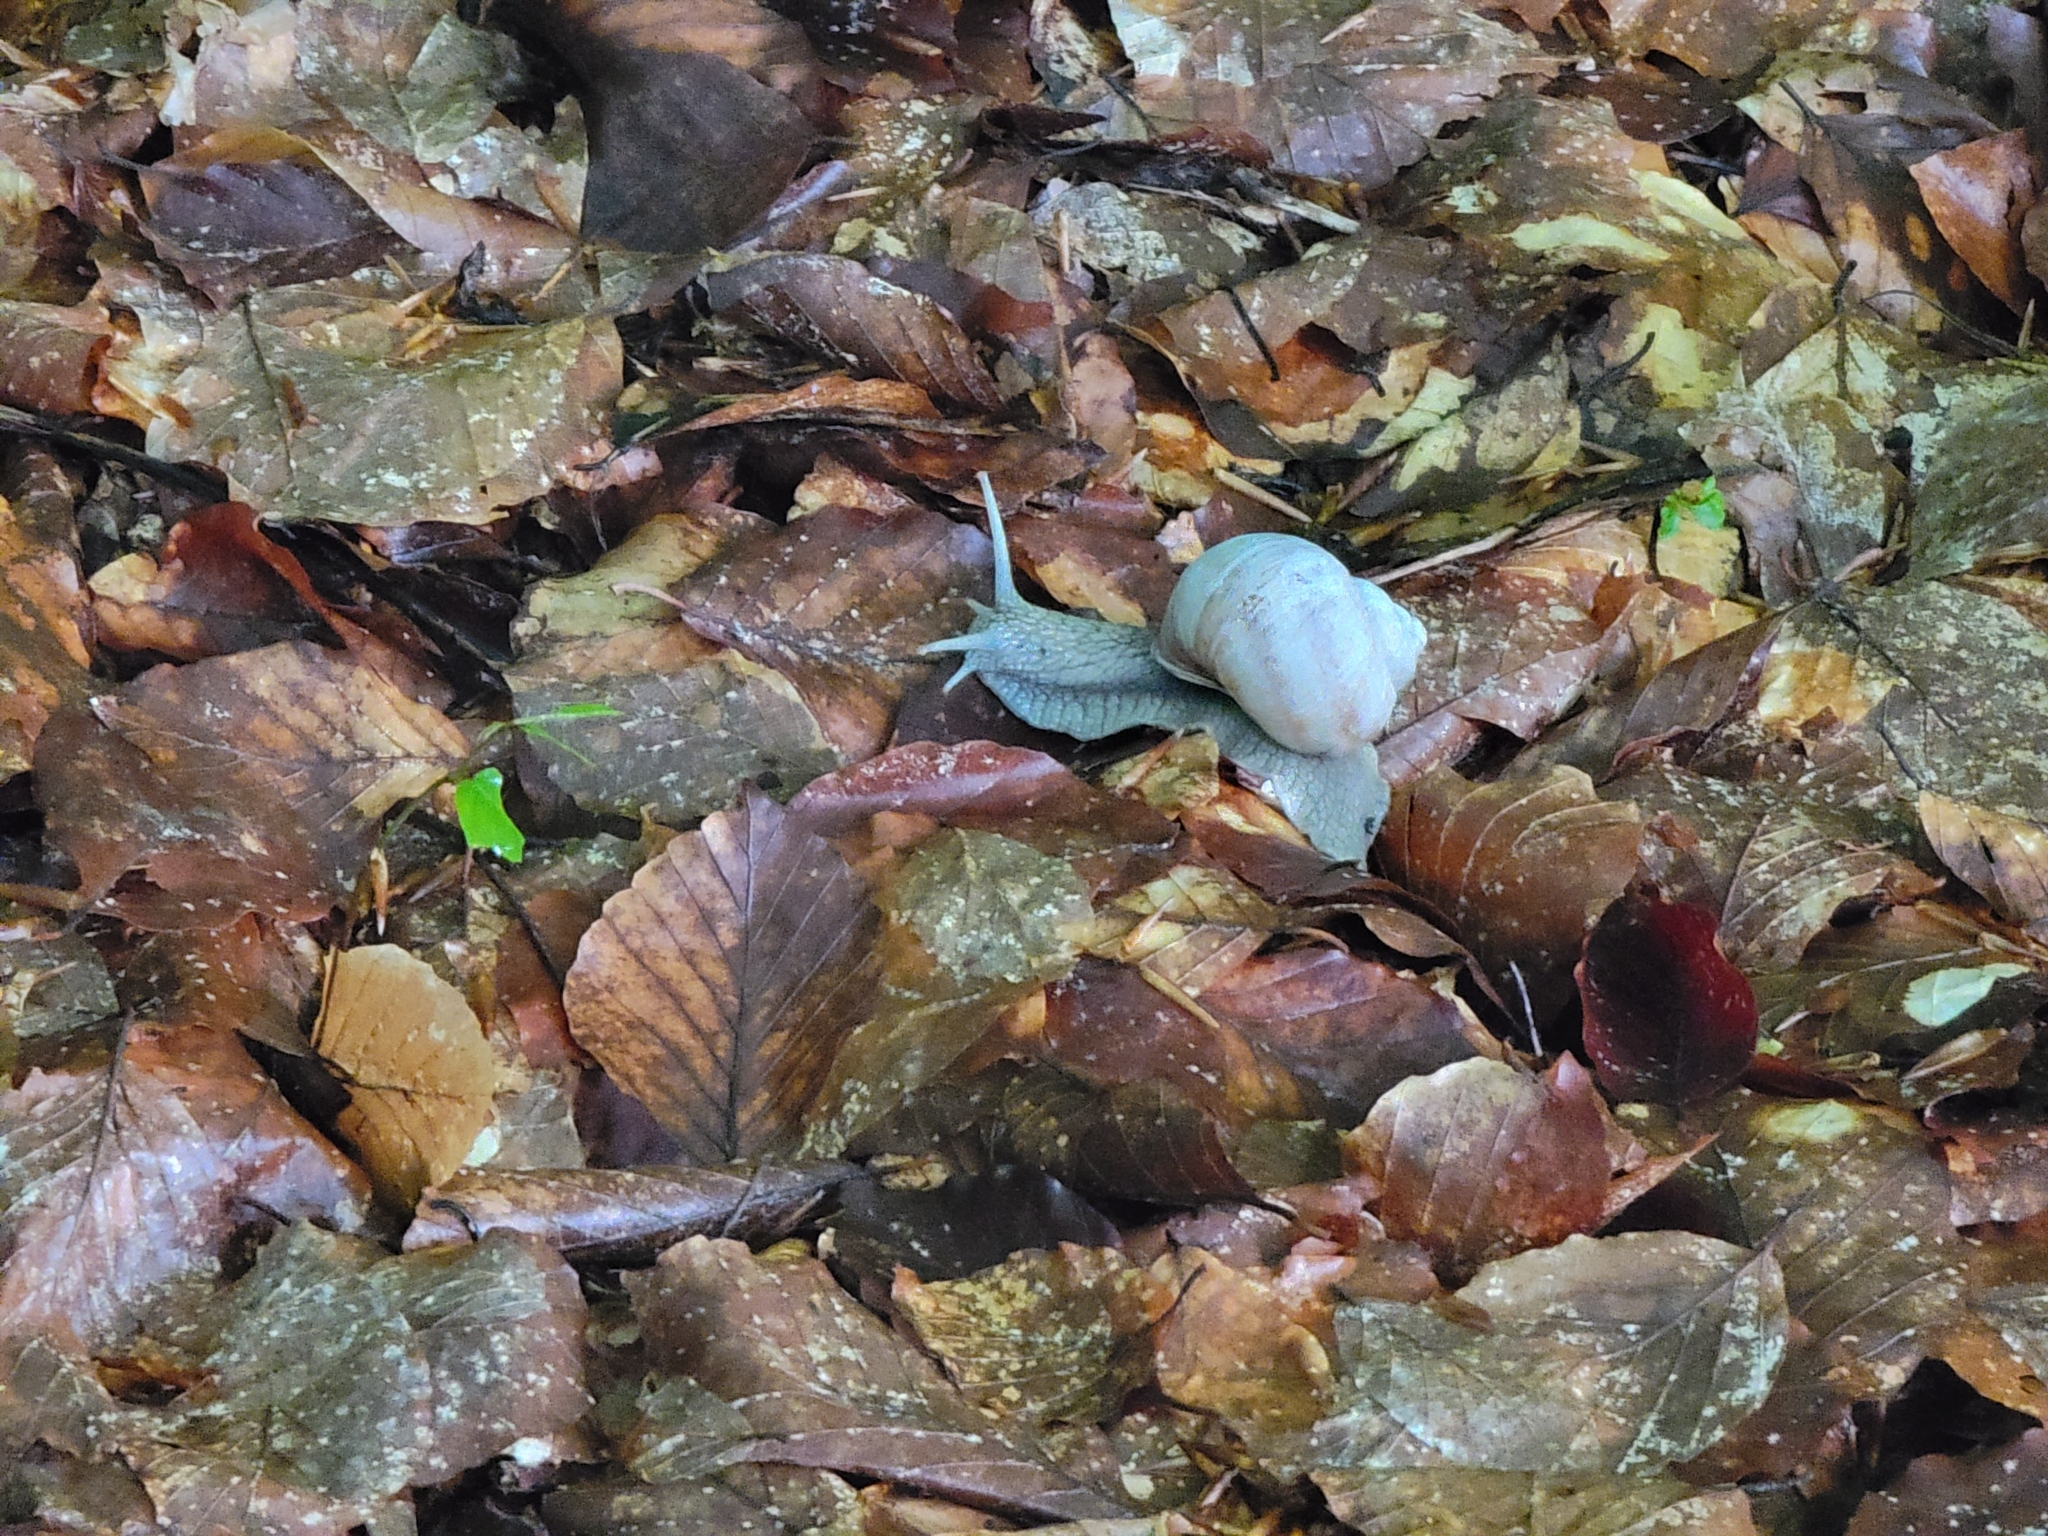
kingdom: Animalia
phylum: Mollusca
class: Gastropoda
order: Stylommatophora
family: Helicidae
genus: Helix
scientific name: Helix pomatia
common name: Roman snail
